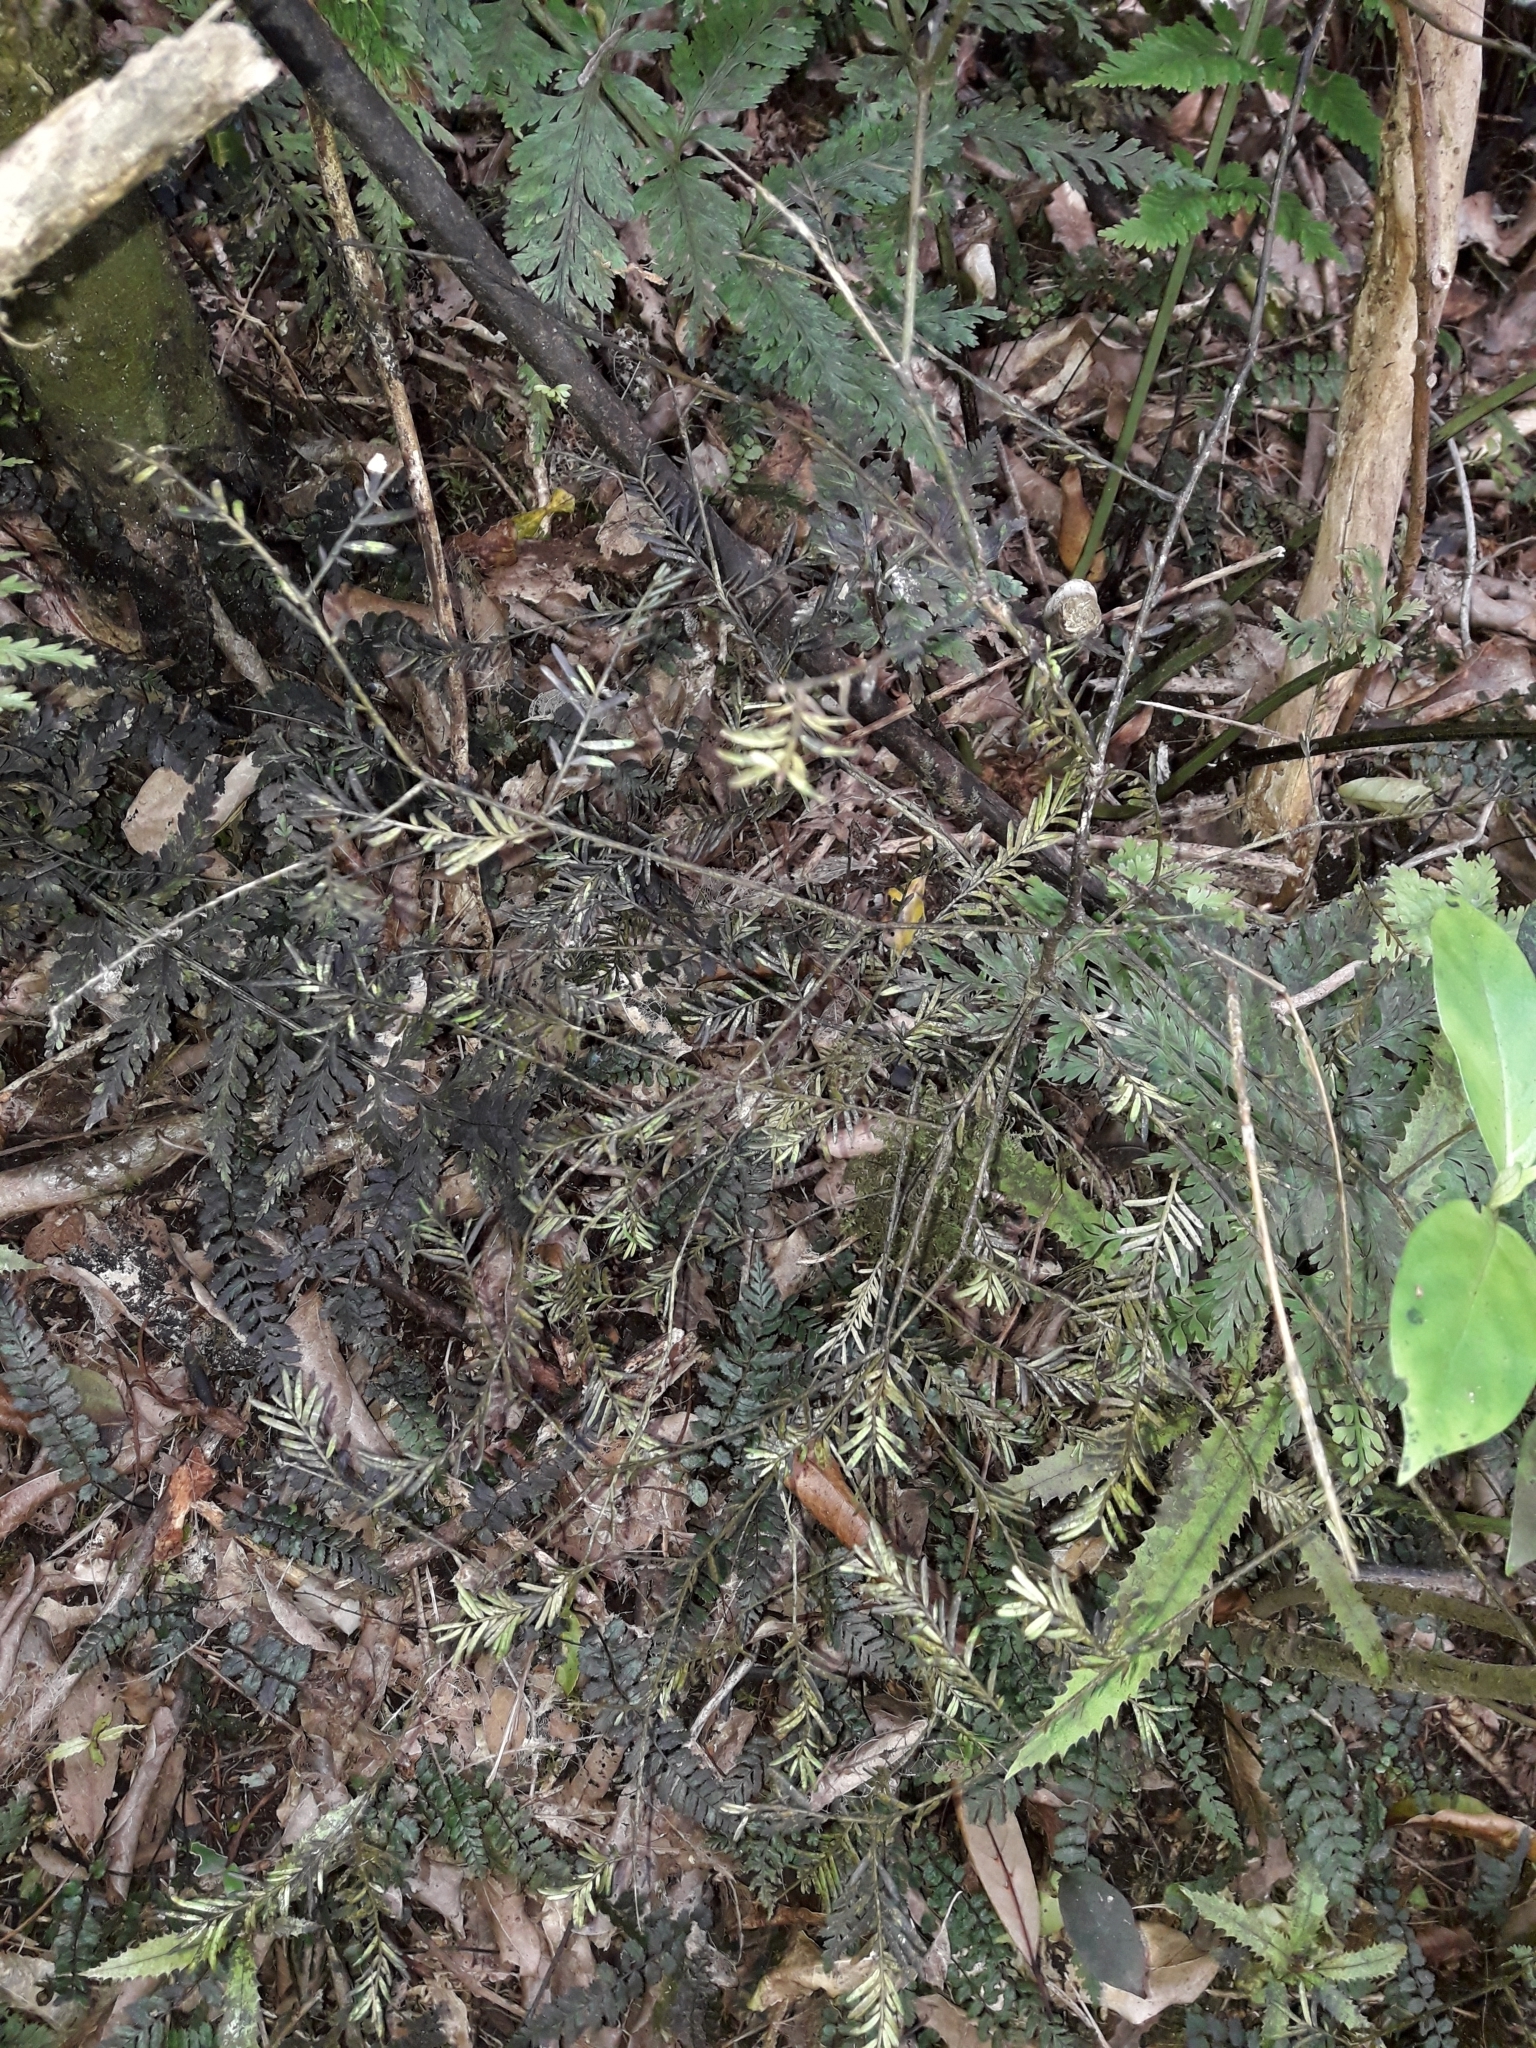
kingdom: Plantae
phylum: Tracheophyta
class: Pinopsida
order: Pinales
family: Podocarpaceae
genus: Prumnopitys
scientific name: Prumnopitys taxifolia
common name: Matai
